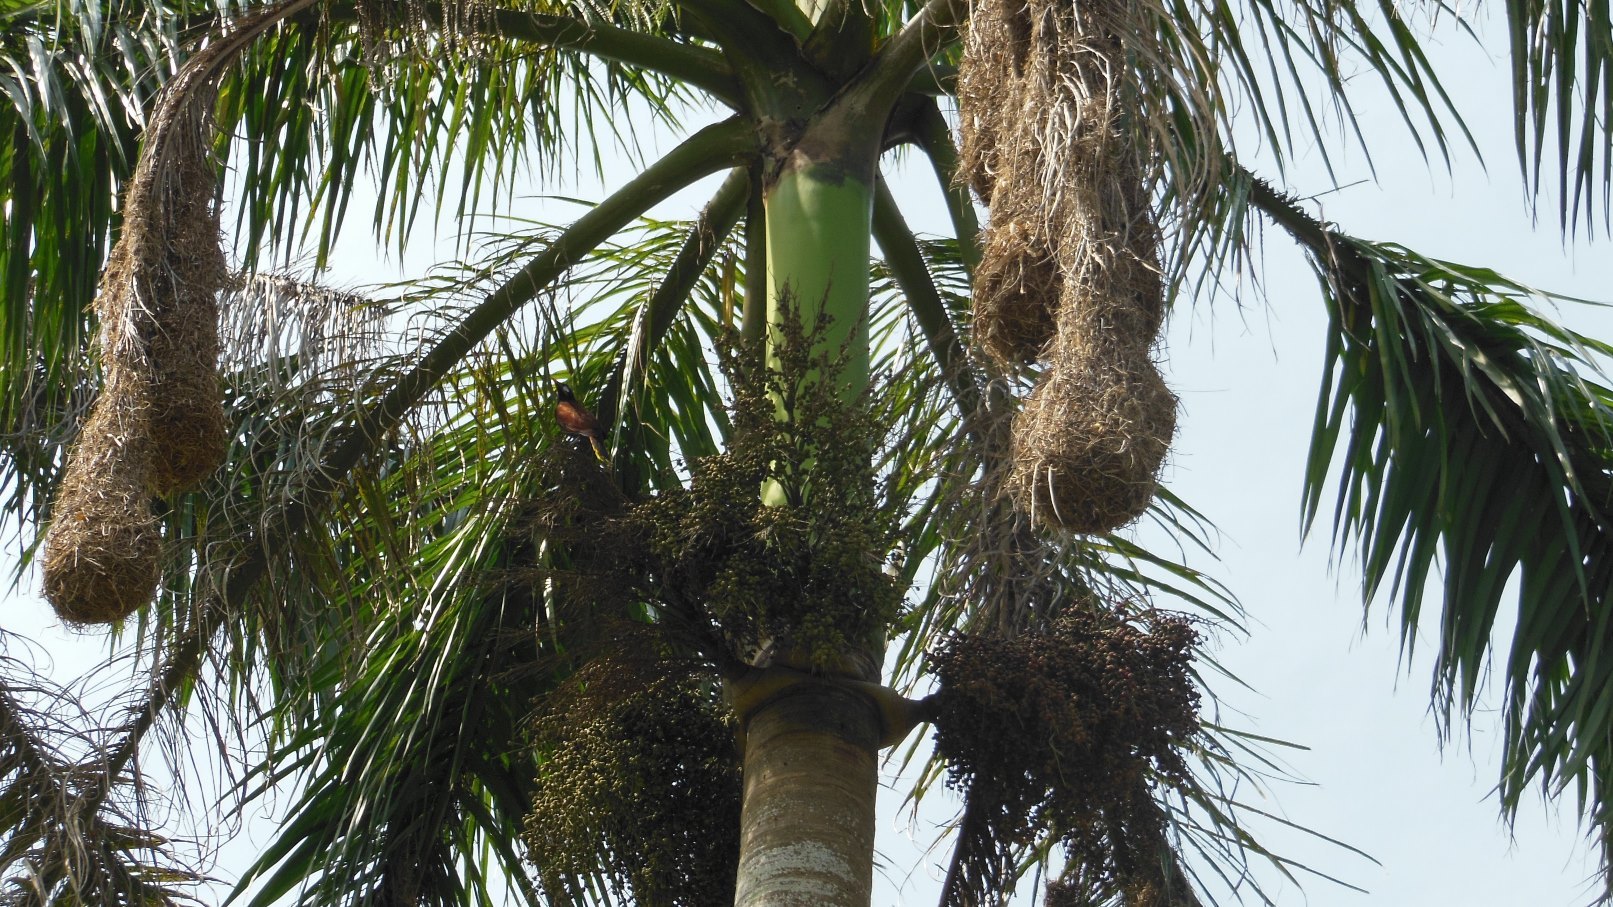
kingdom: Plantae
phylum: Tracheophyta
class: Liliopsida
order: Arecales
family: Arecaceae
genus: Roystonea
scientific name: Roystonea dunlapiana
